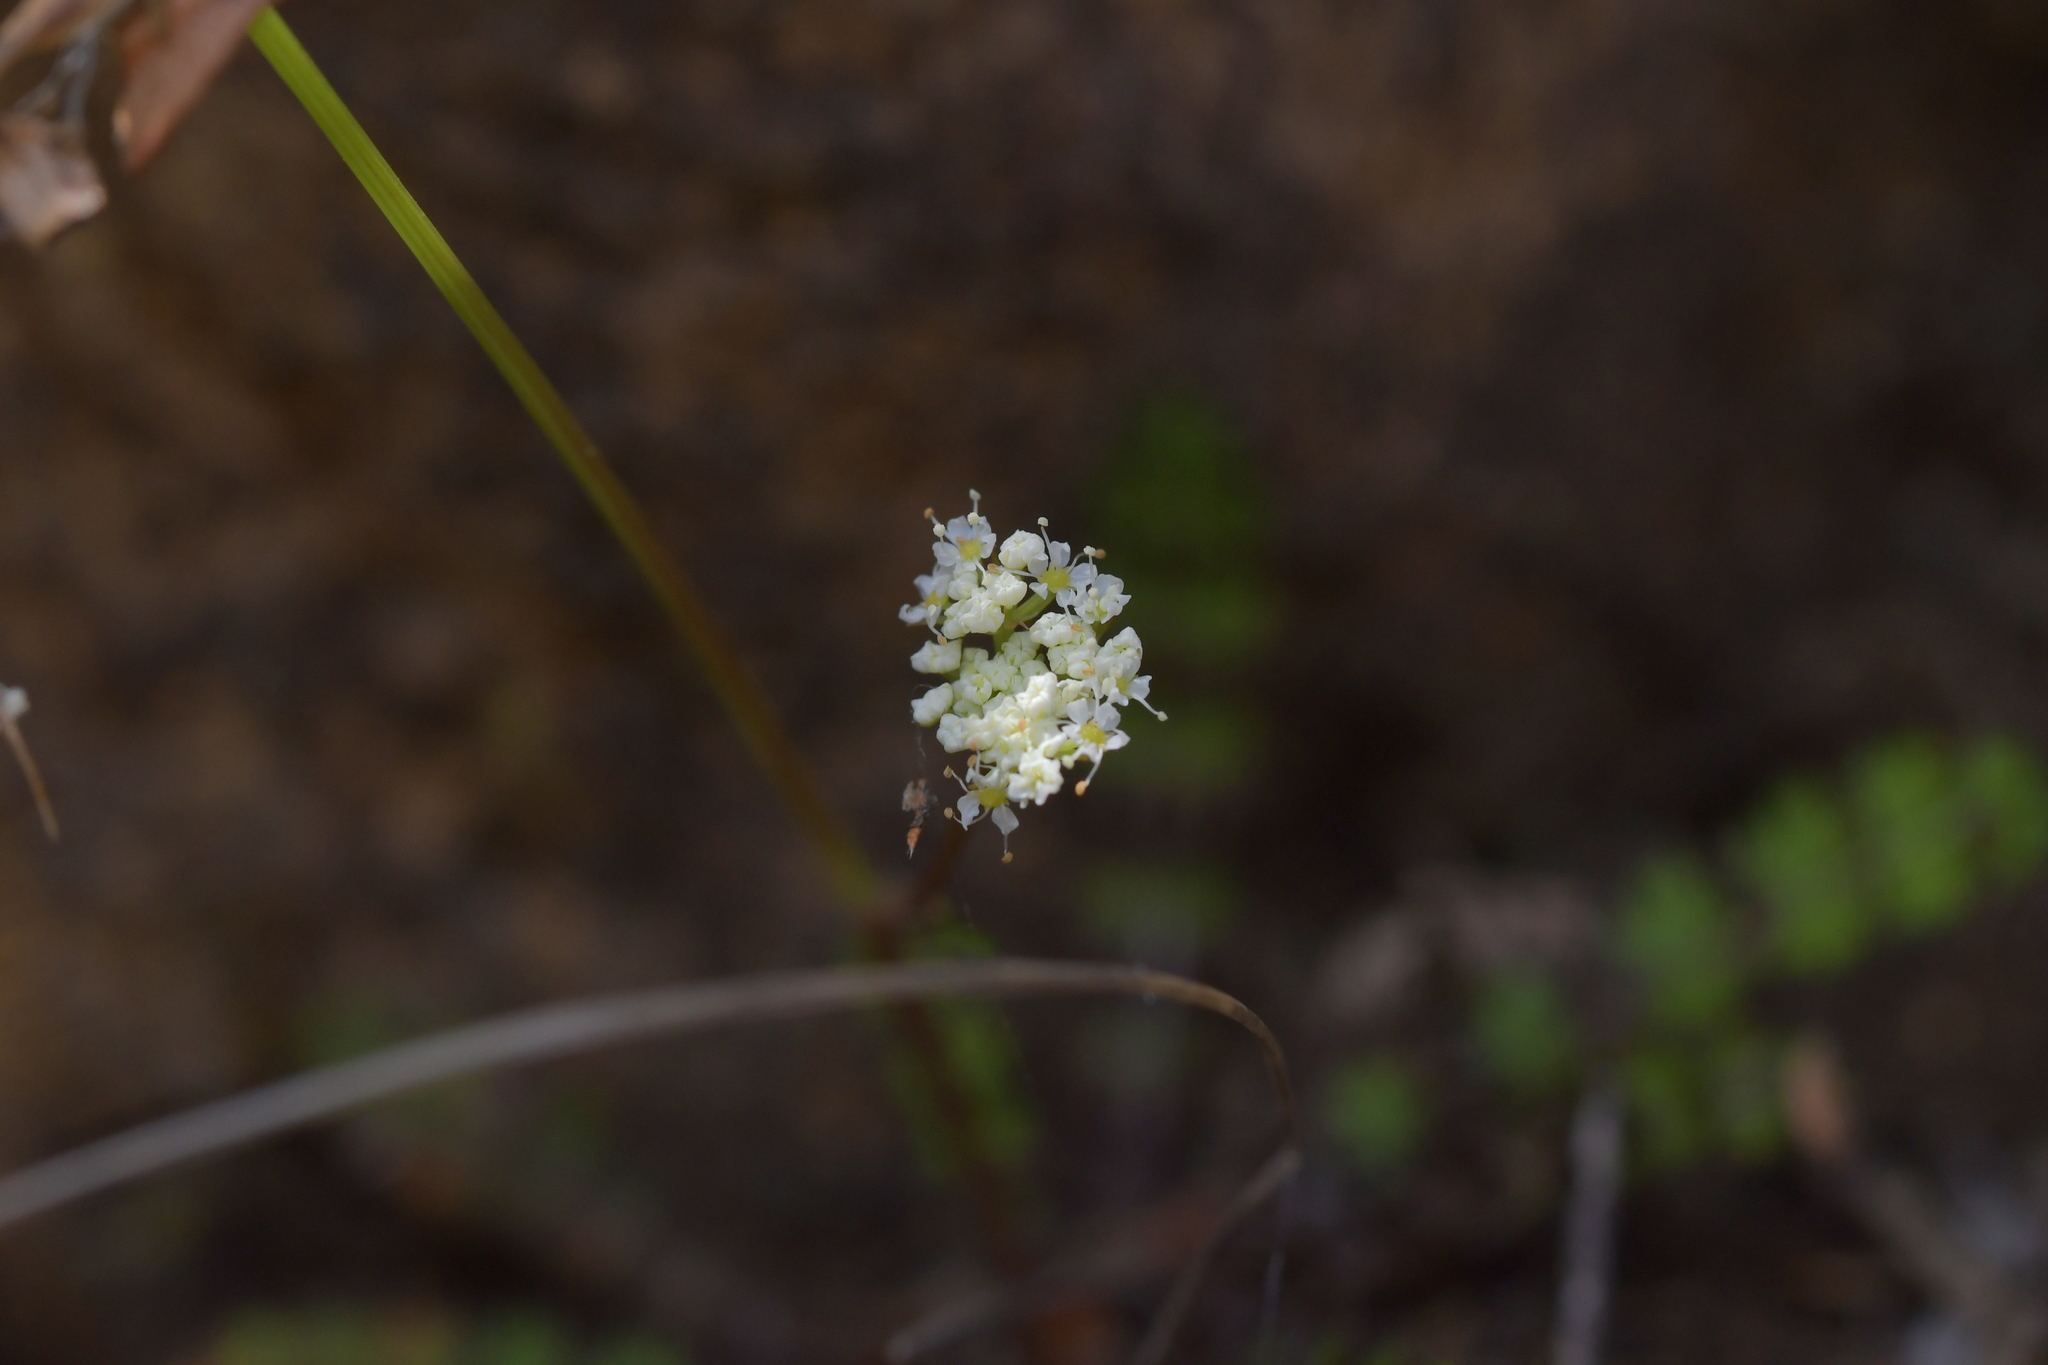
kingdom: Plantae
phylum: Tracheophyta
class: Magnoliopsida
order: Apiales
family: Apiaceae
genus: Anisotome
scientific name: Anisotome aromatica
